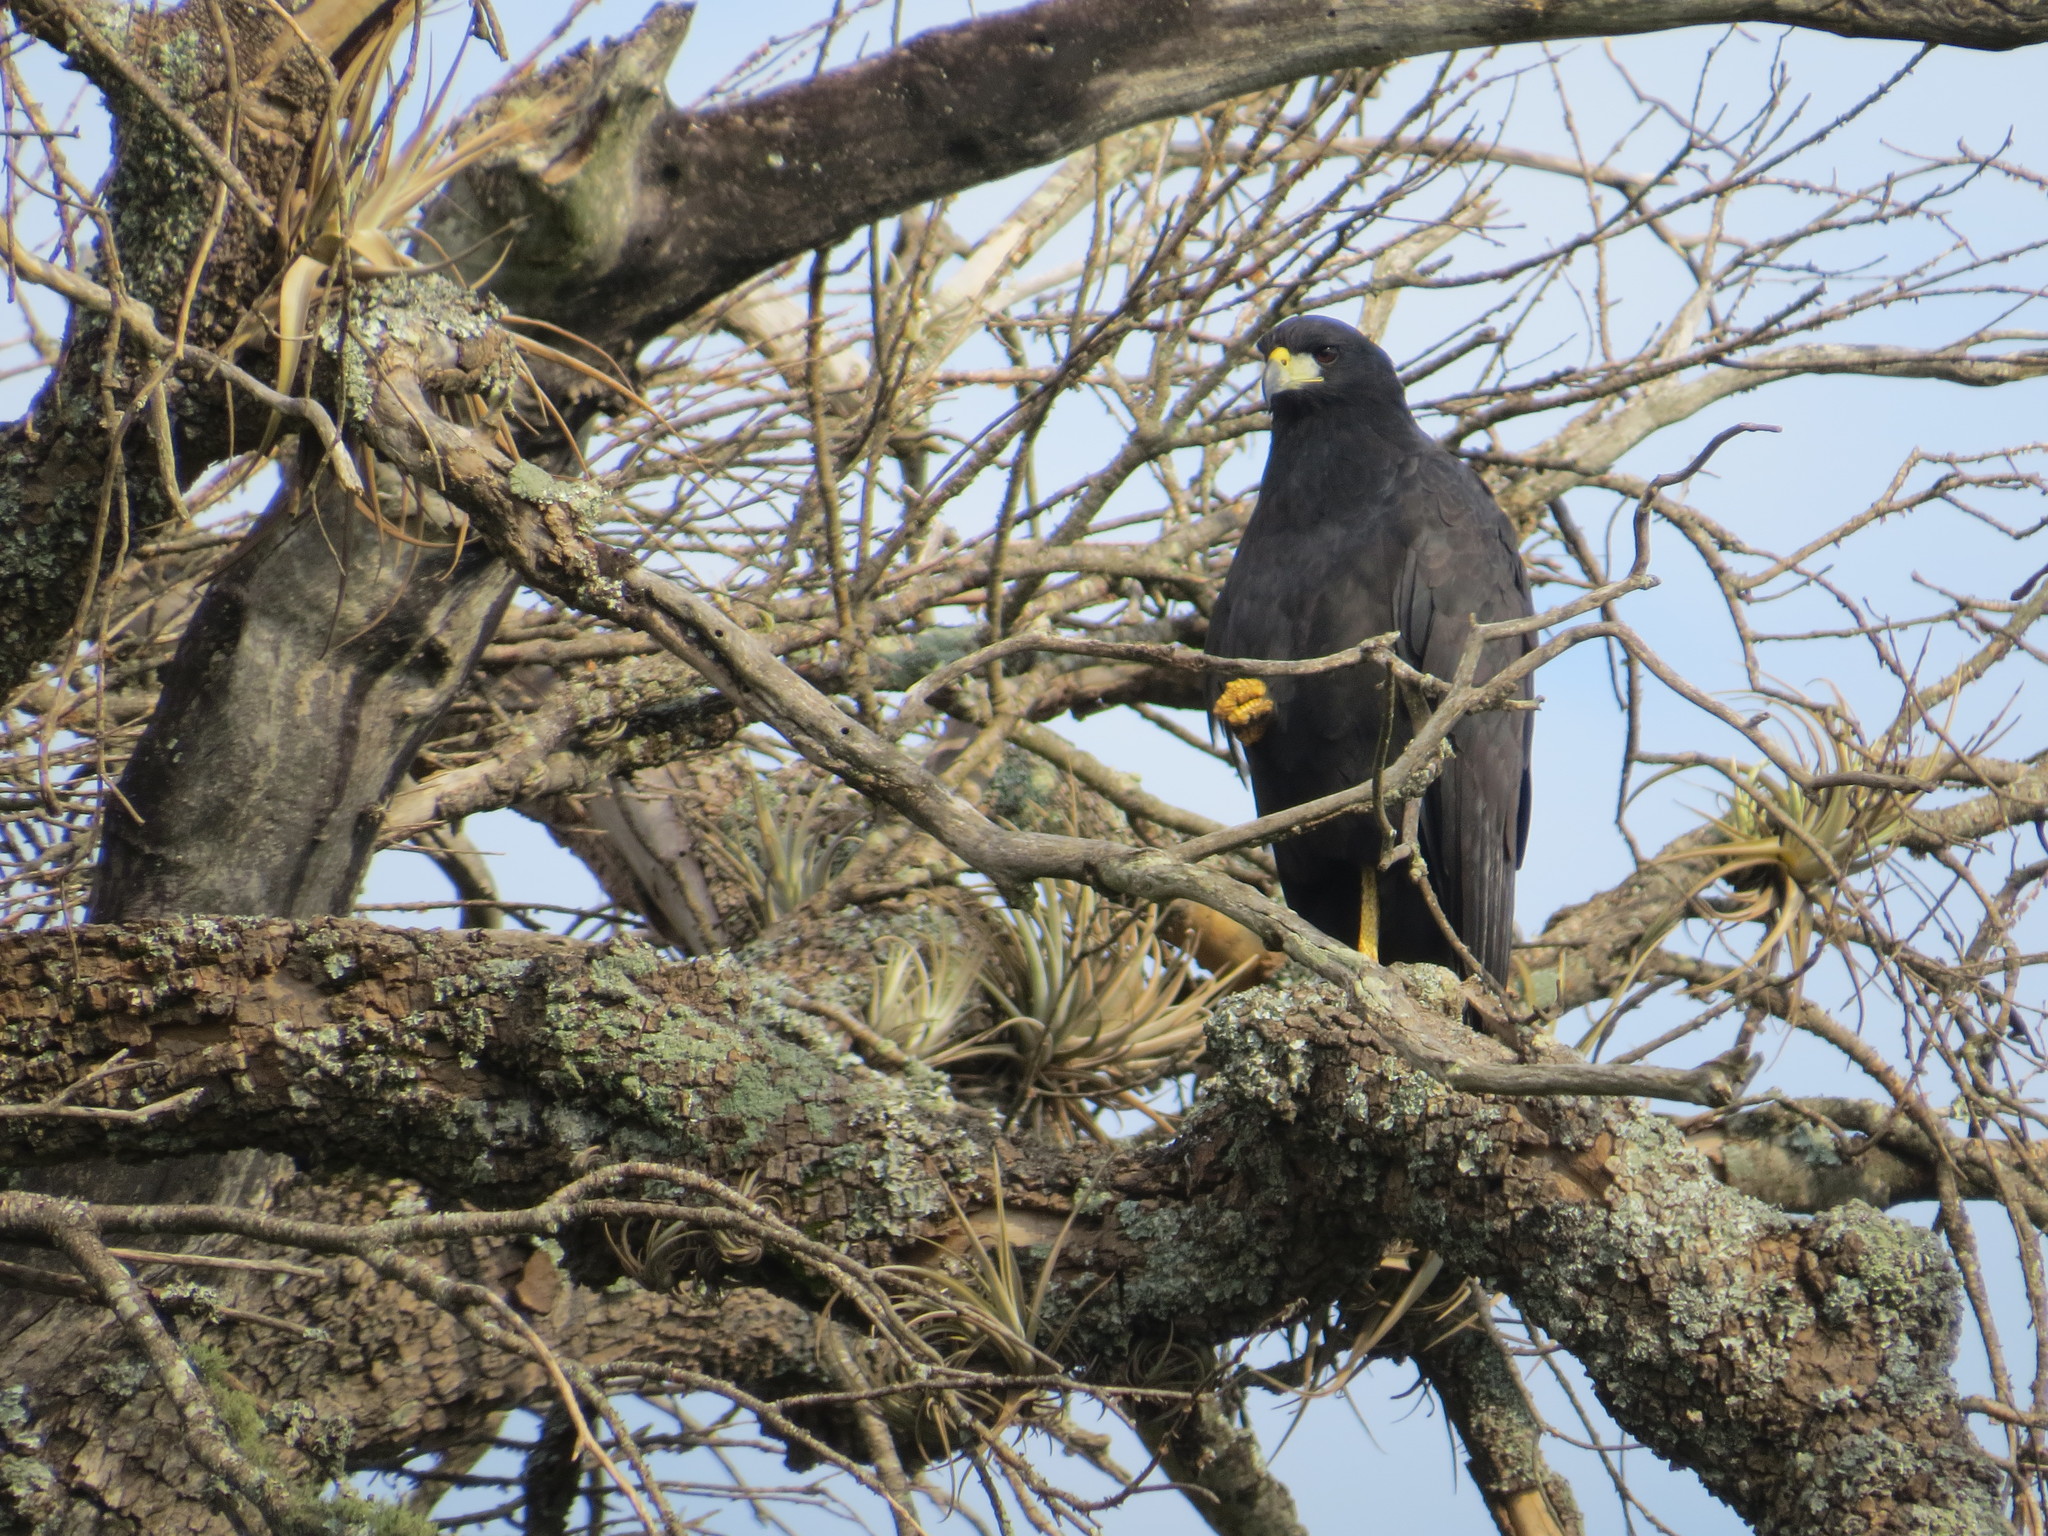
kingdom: Animalia
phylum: Chordata
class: Aves
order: Accipitriformes
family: Accipitridae
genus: Buteogallus
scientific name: Buteogallus urubitinga
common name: Great black hawk
